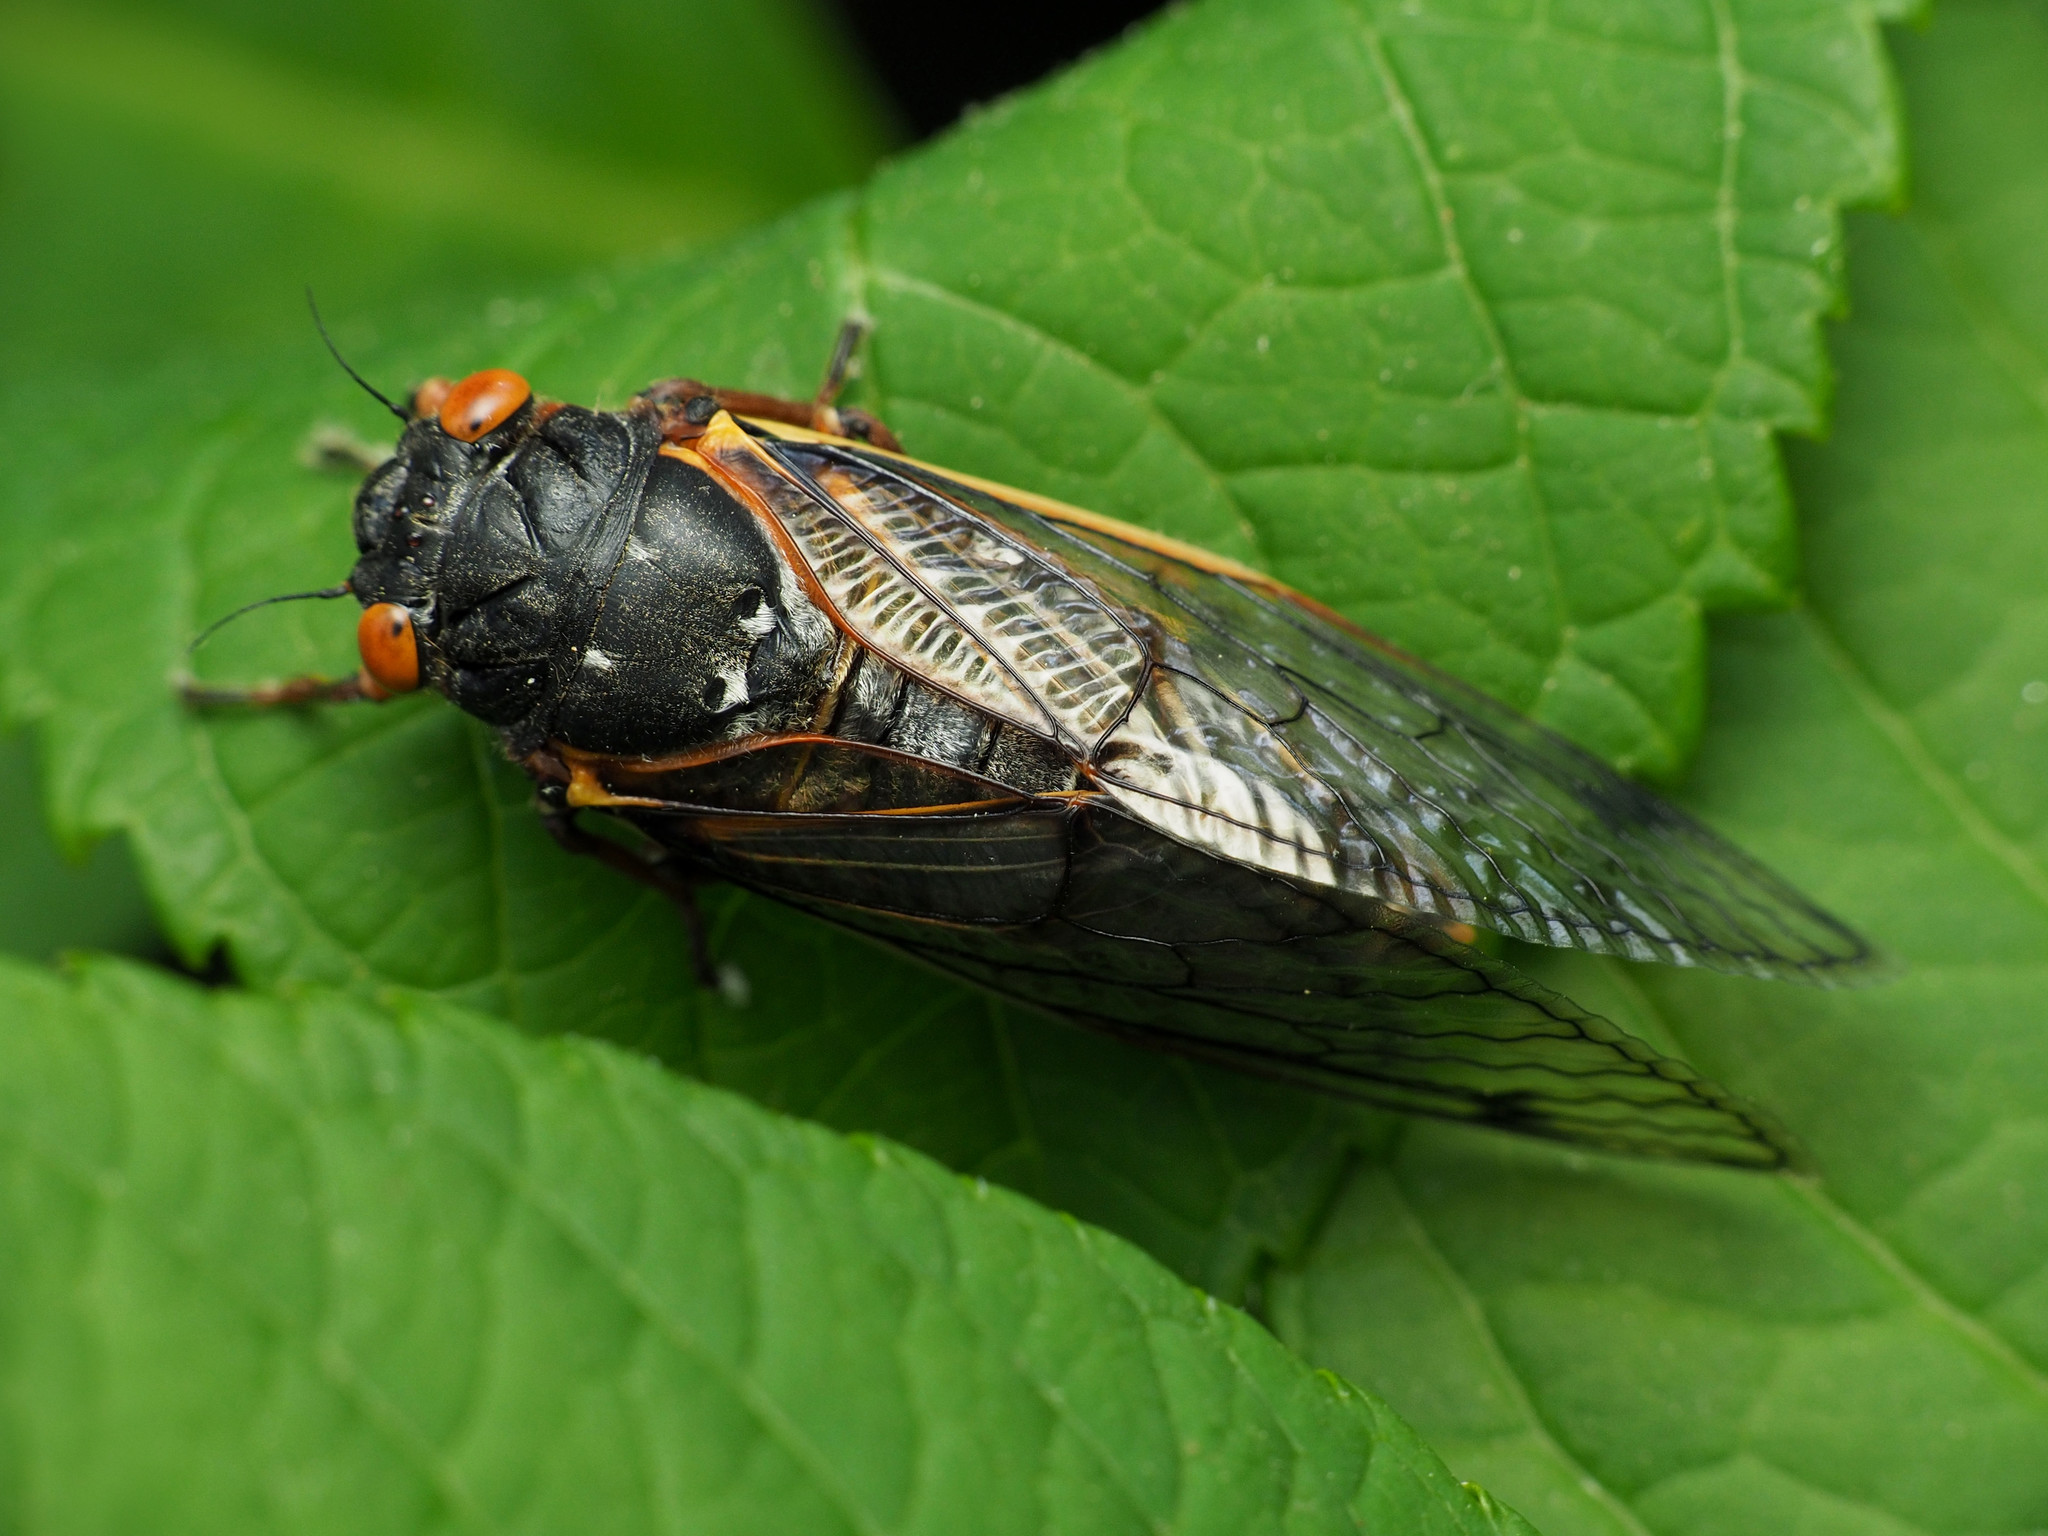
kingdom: Animalia
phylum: Arthropoda
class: Insecta
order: Hemiptera
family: Cicadidae
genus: Magicicada
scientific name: Magicicada septendecim
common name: Periodical cicada
